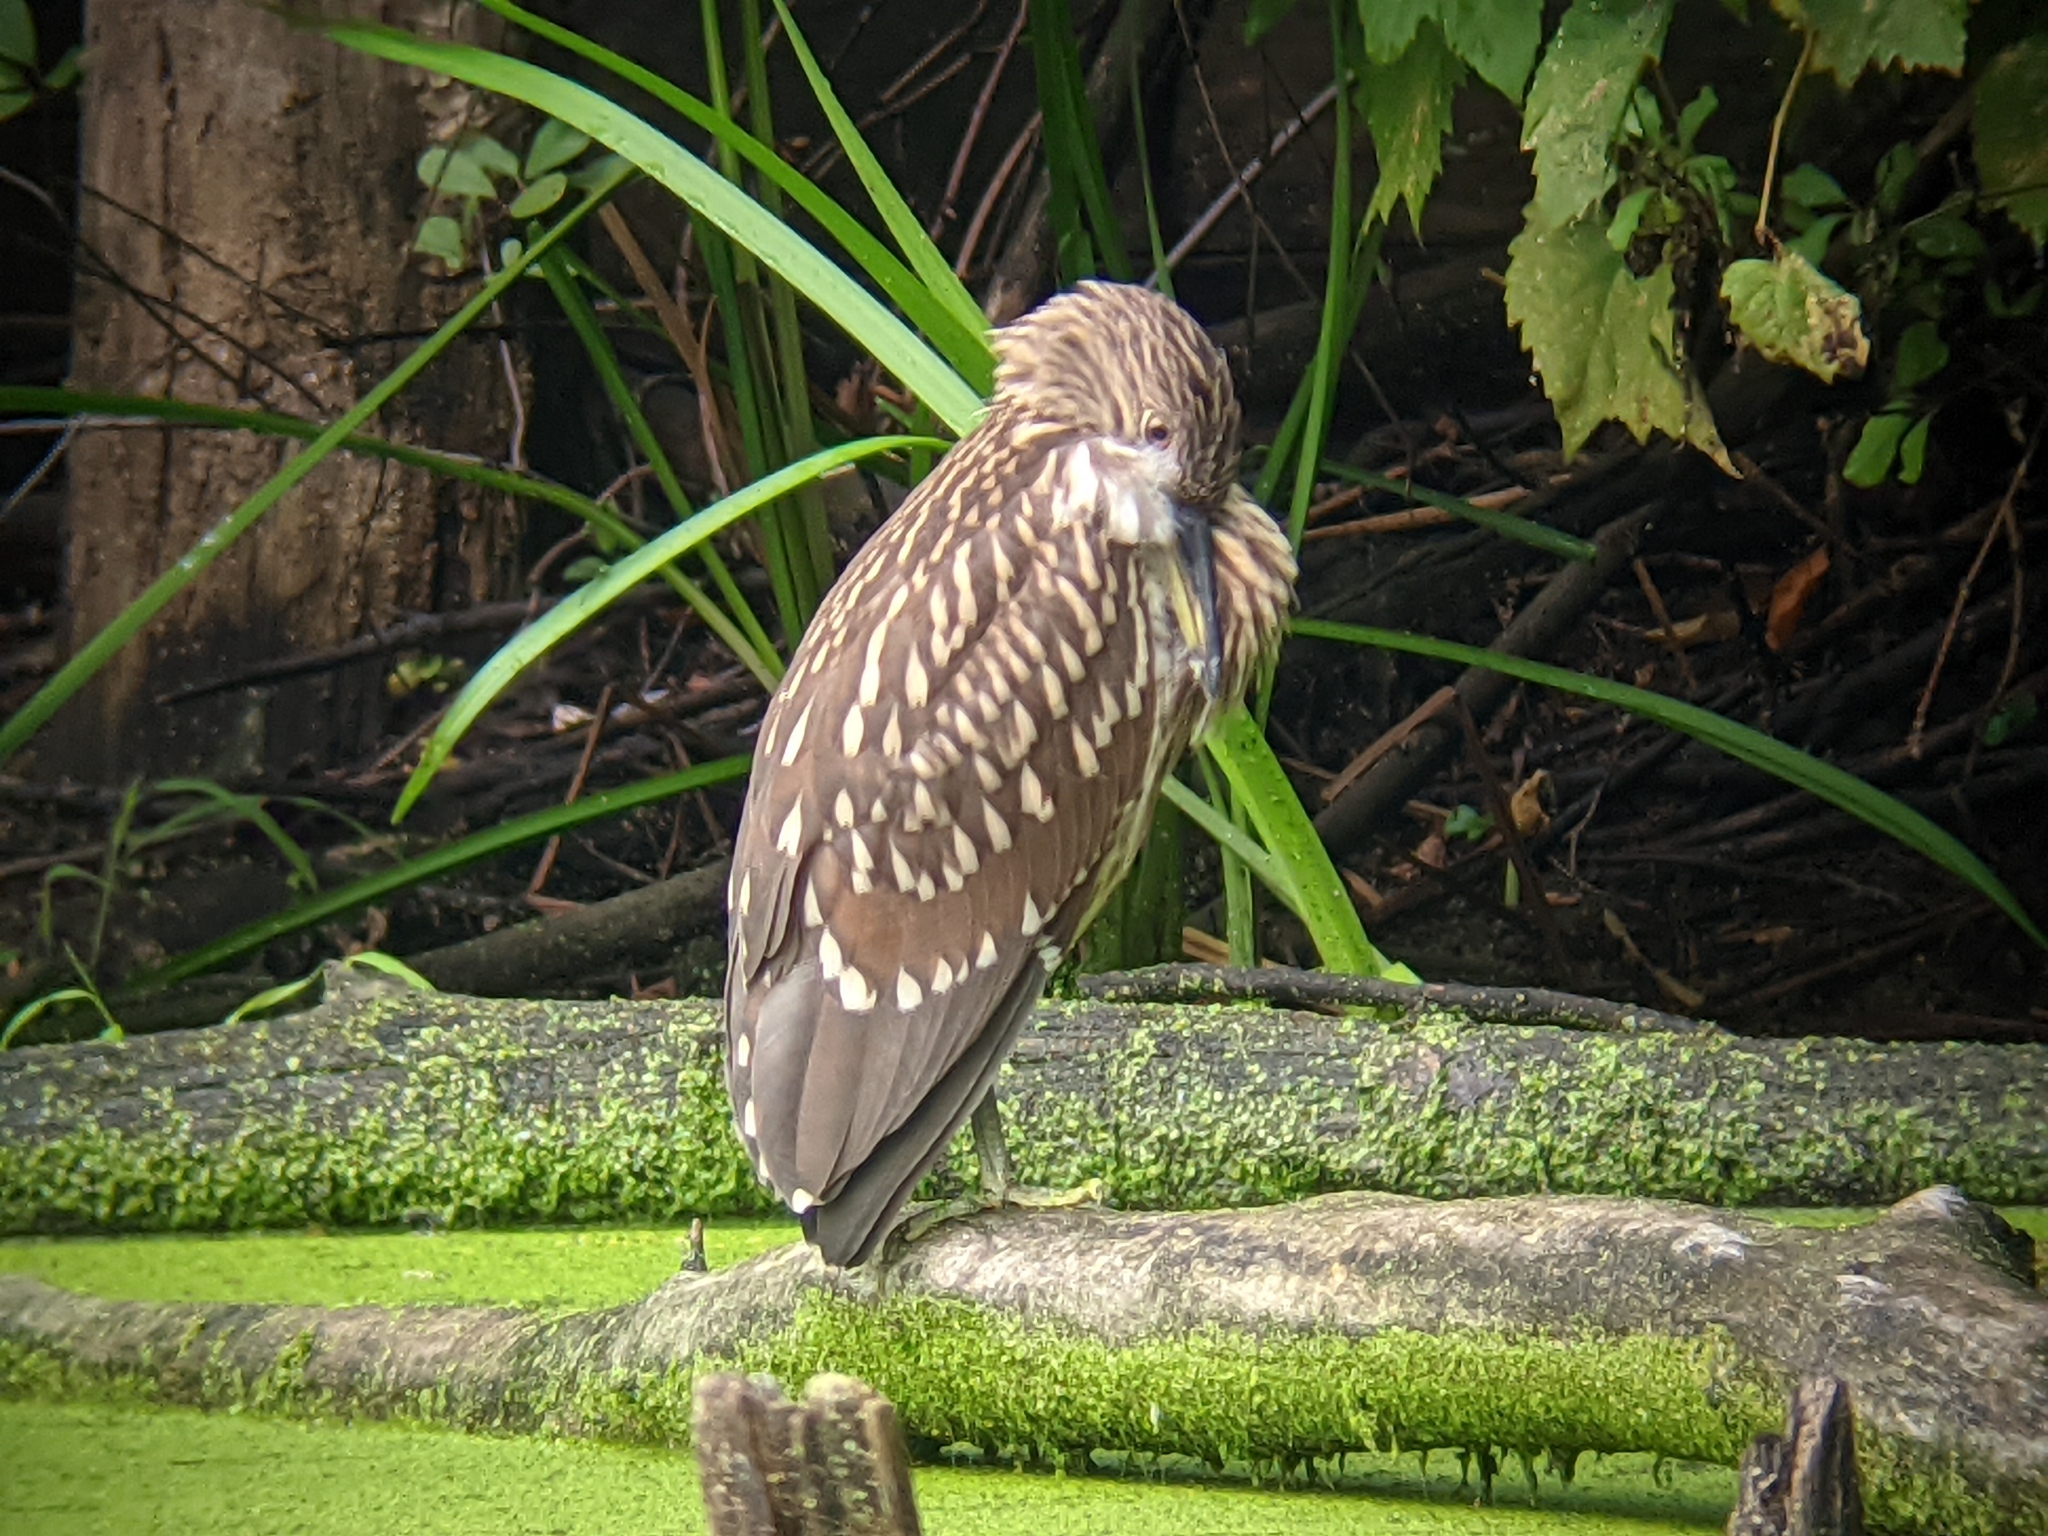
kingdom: Animalia
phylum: Chordata
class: Aves
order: Pelecaniformes
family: Ardeidae
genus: Nycticorax
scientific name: Nycticorax nycticorax
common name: Black-crowned night heron
